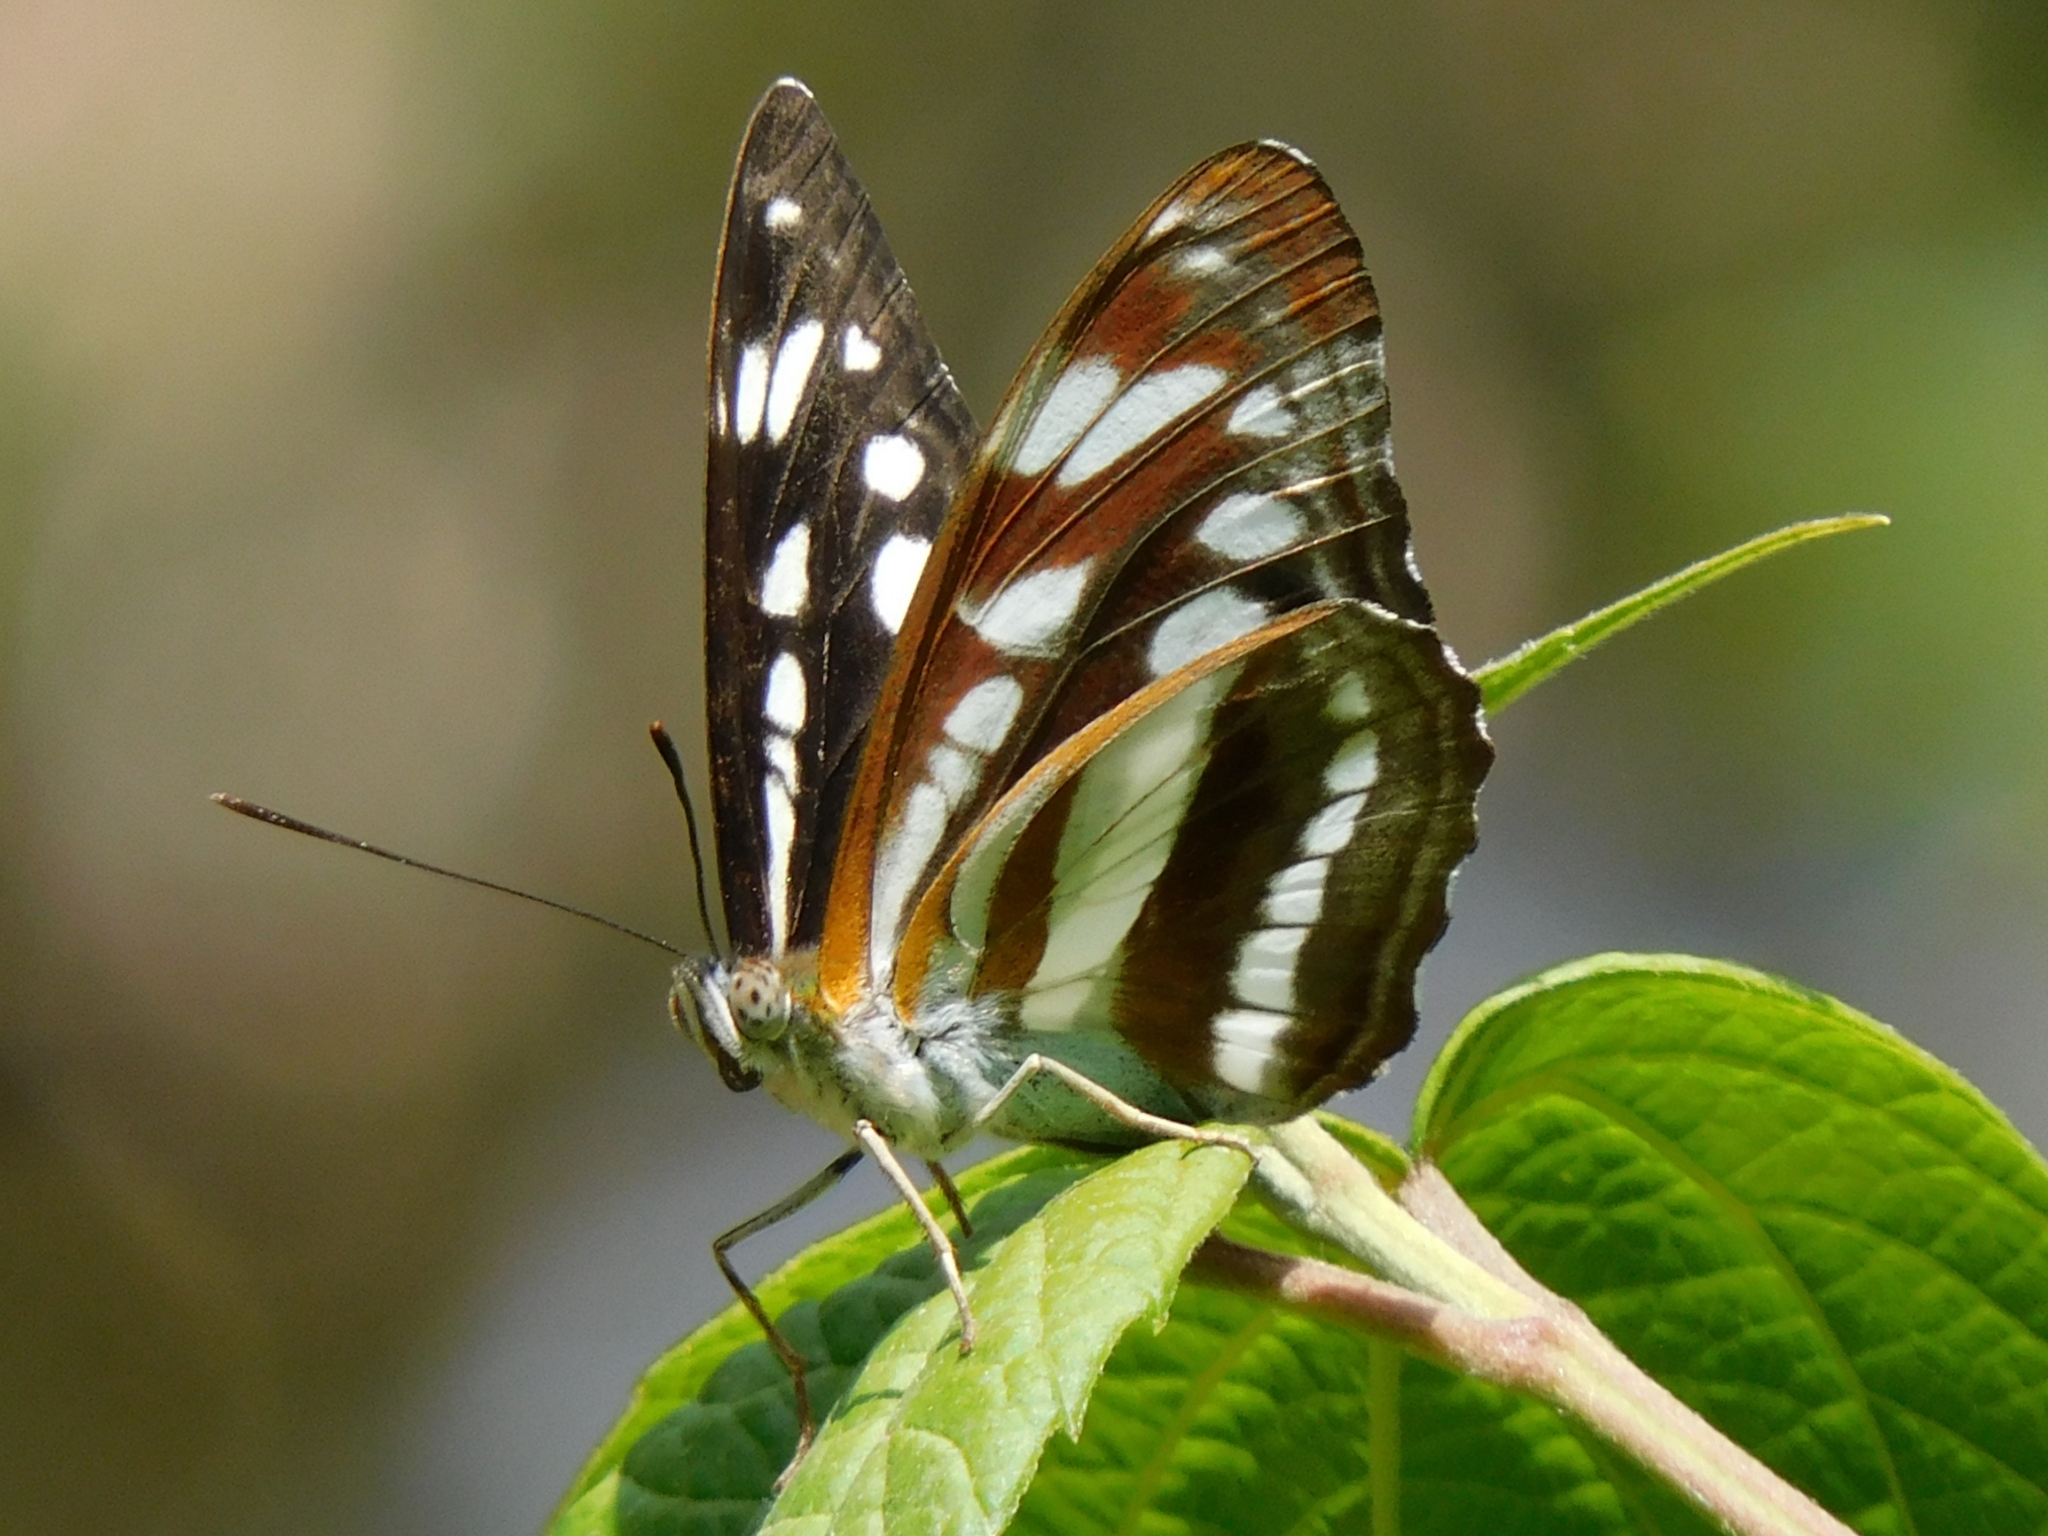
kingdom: Animalia
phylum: Arthropoda
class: Insecta
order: Lepidoptera
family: Nymphalidae
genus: Parathyma
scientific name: Parathyma opalina
